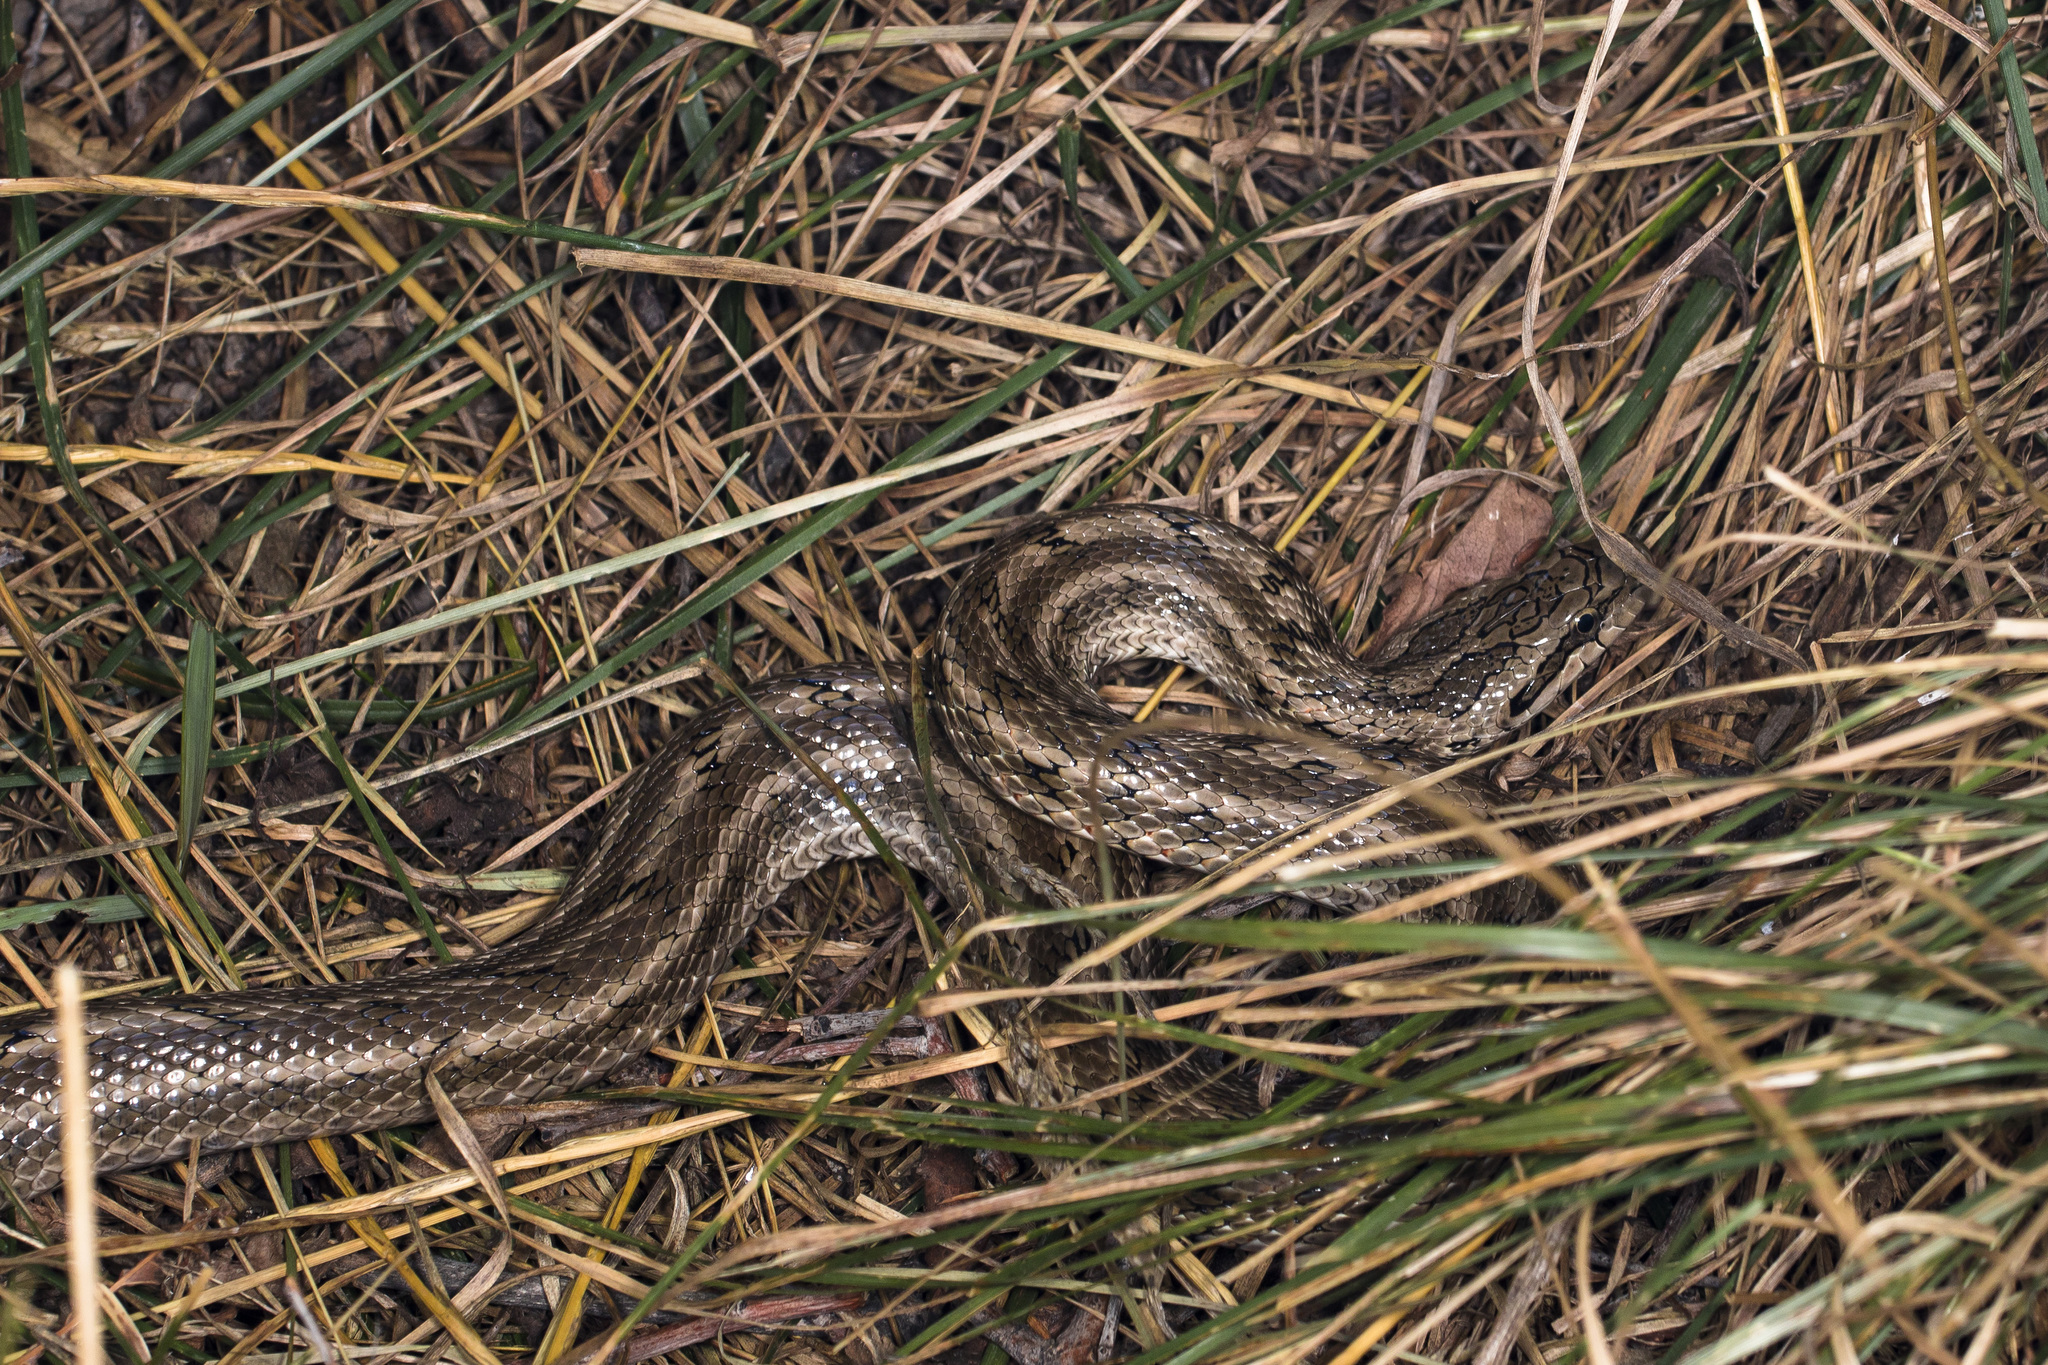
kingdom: Animalia
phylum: Chordata
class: Squamata
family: Colubridae
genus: Elaphe
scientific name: Elaphe dione
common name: Dione ratsnake
